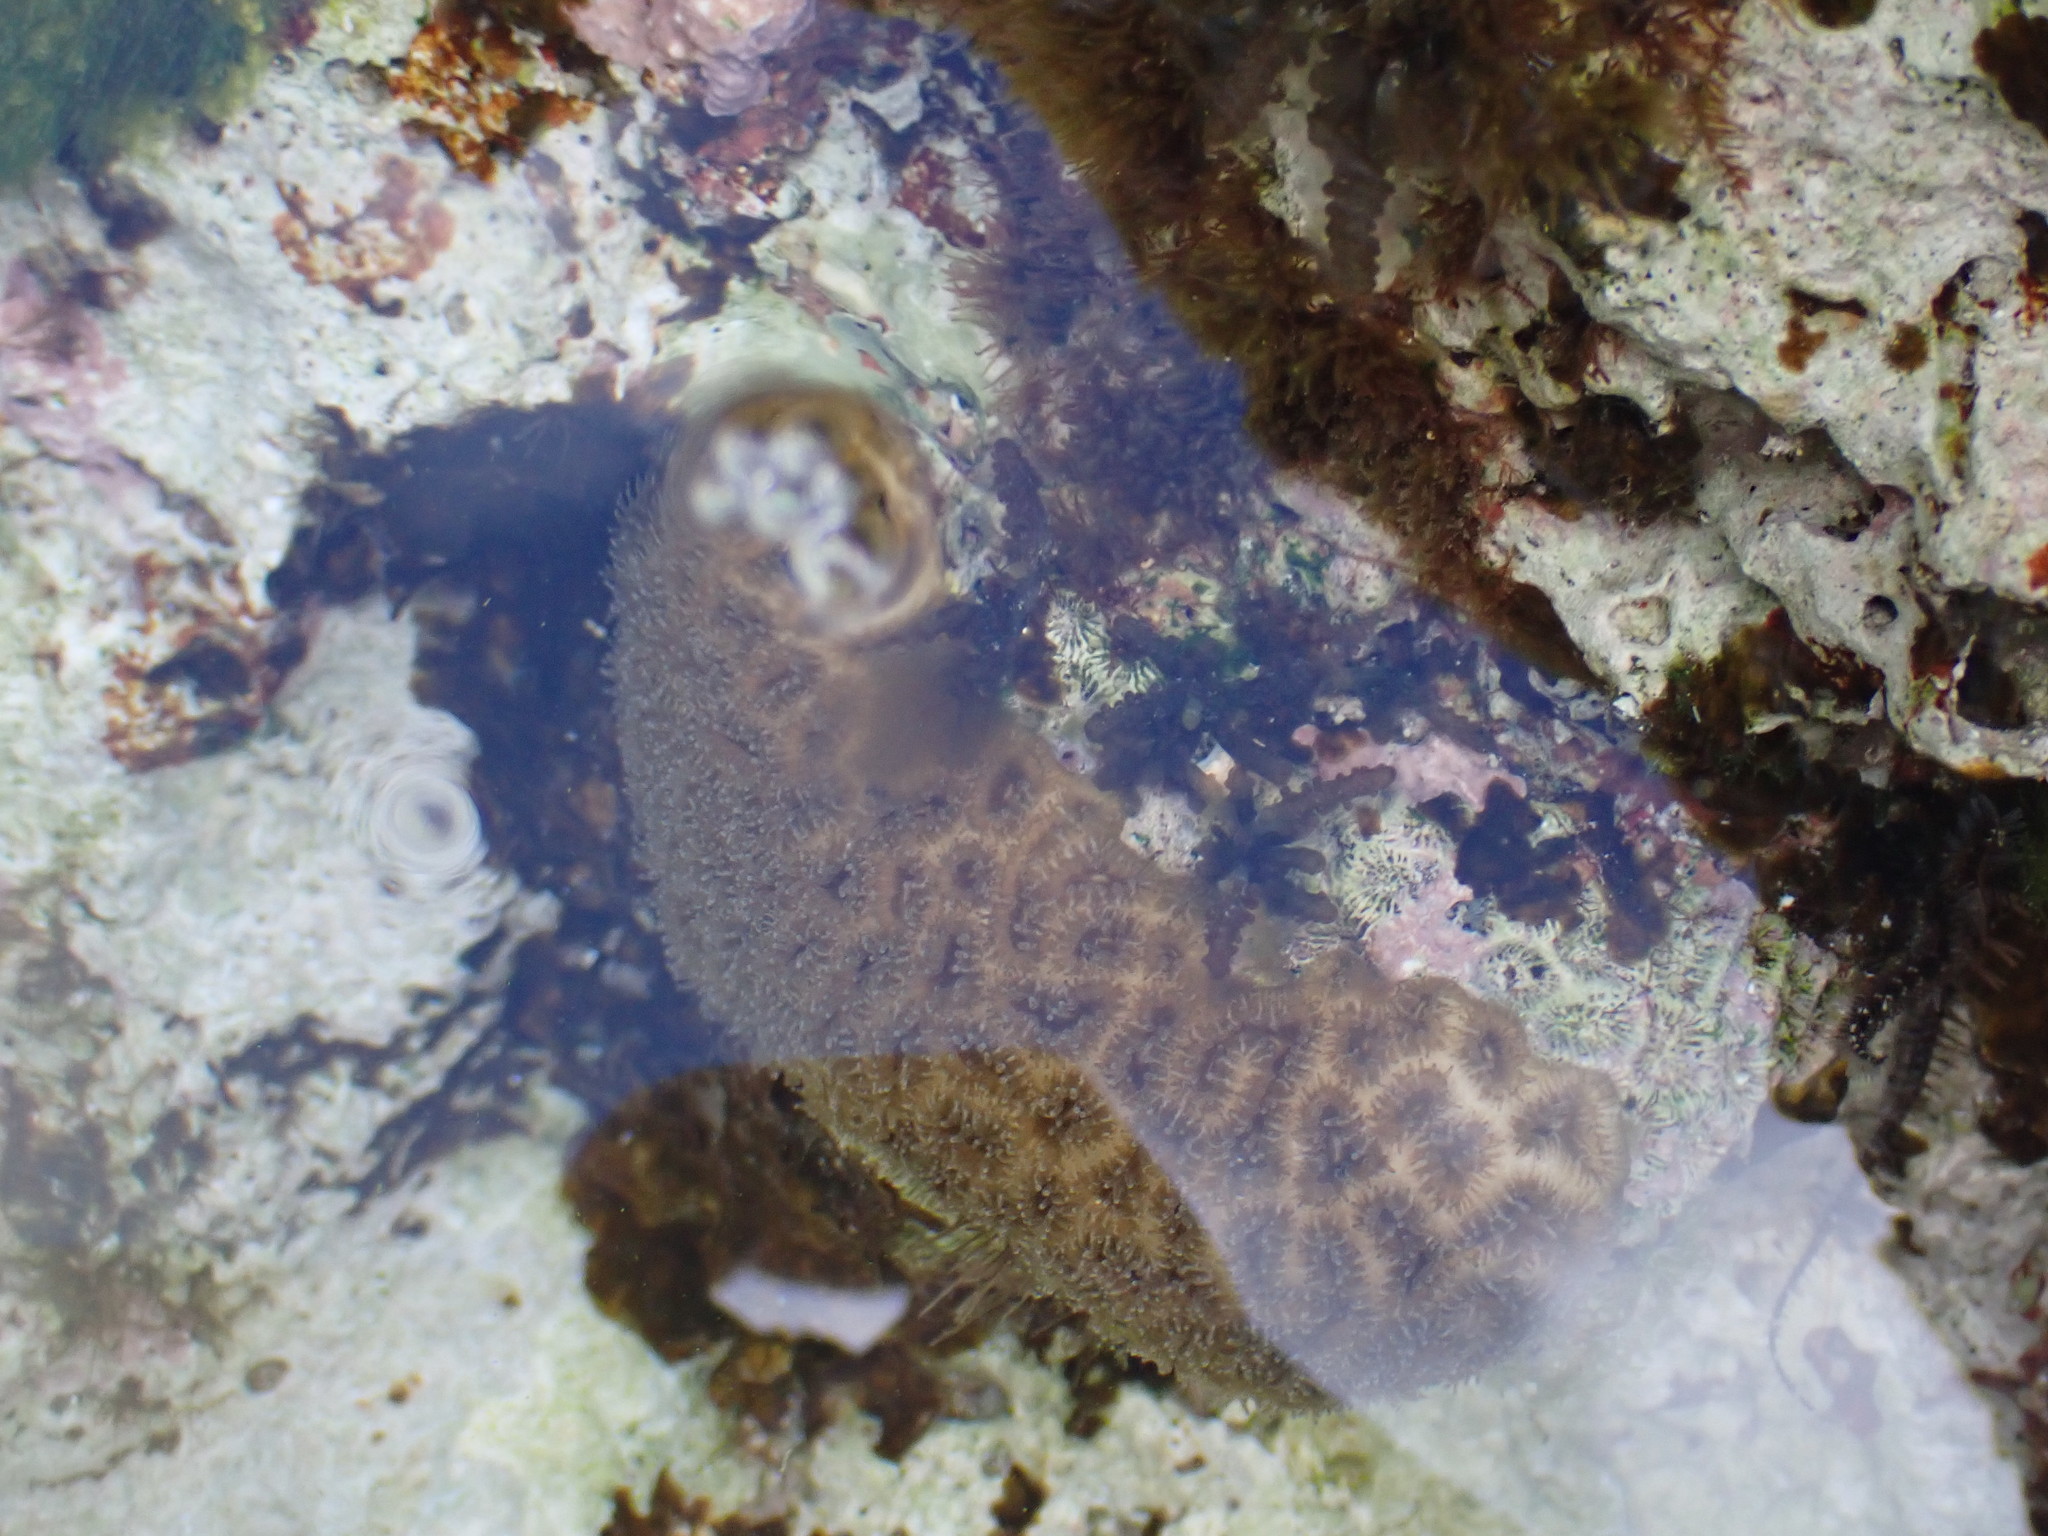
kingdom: Animalia
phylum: Cnidaria
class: Anthozoa
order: Scleractinia
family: Faviidae
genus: Favia
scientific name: Favia fragum
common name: Golfball coral
